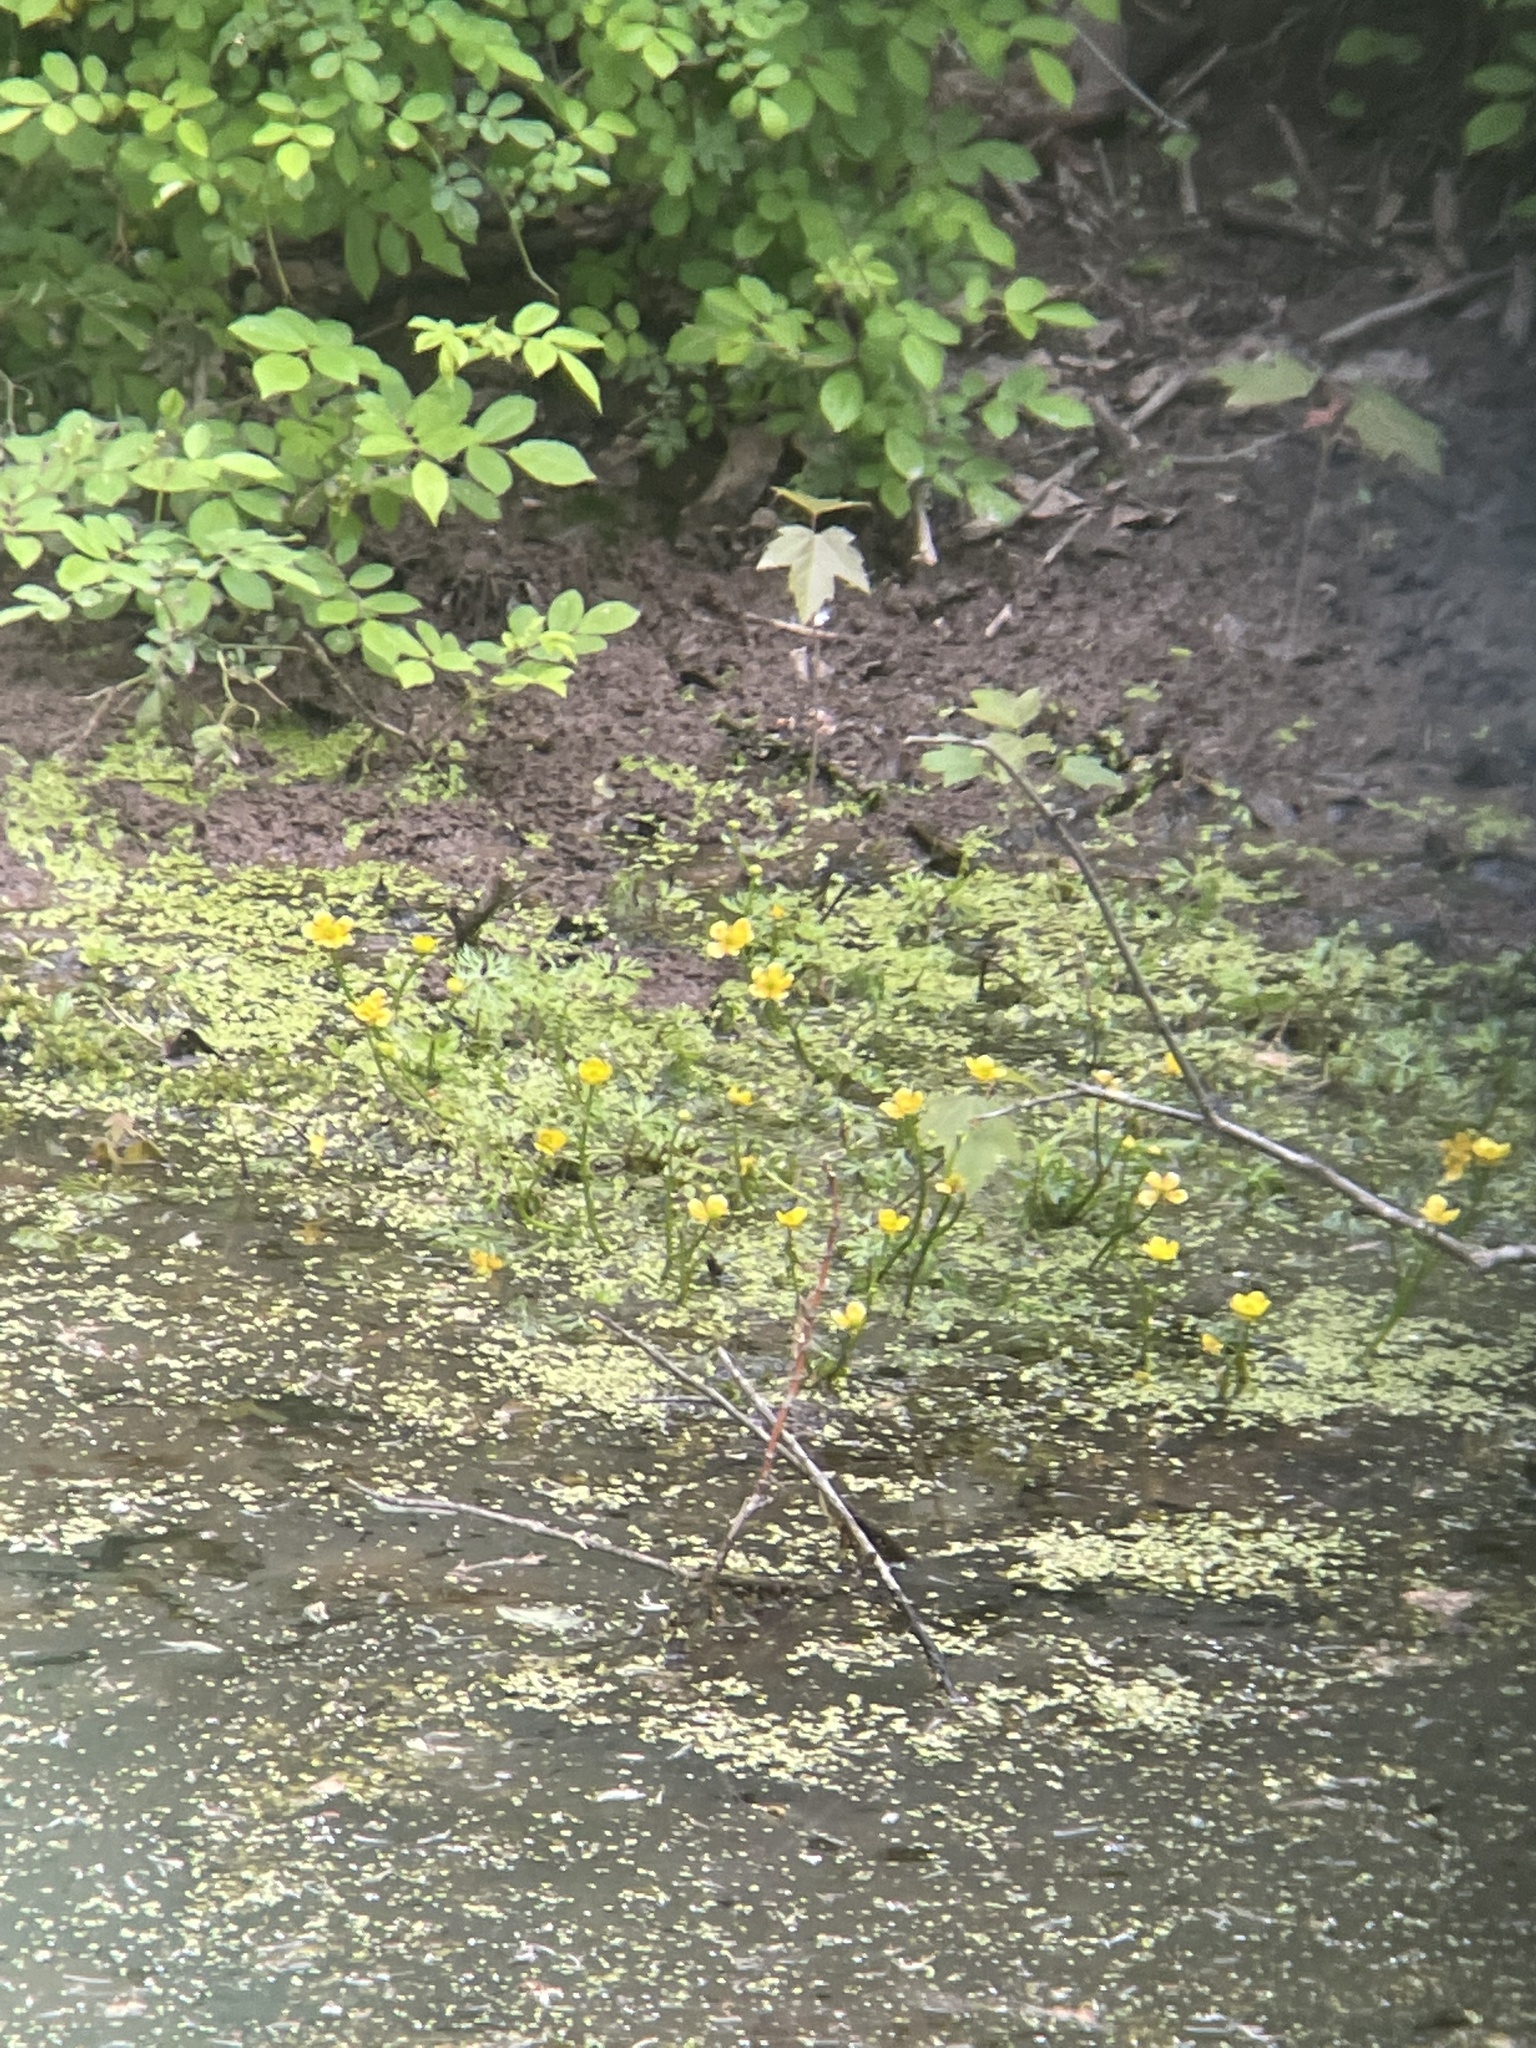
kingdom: Plantae
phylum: Tracheophyta
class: Magnoliopsida
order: Ranunculales
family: Ranunculaceae
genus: Ranunculus
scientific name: Ranunculus flabellaris
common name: Yellow water-crowfoot
